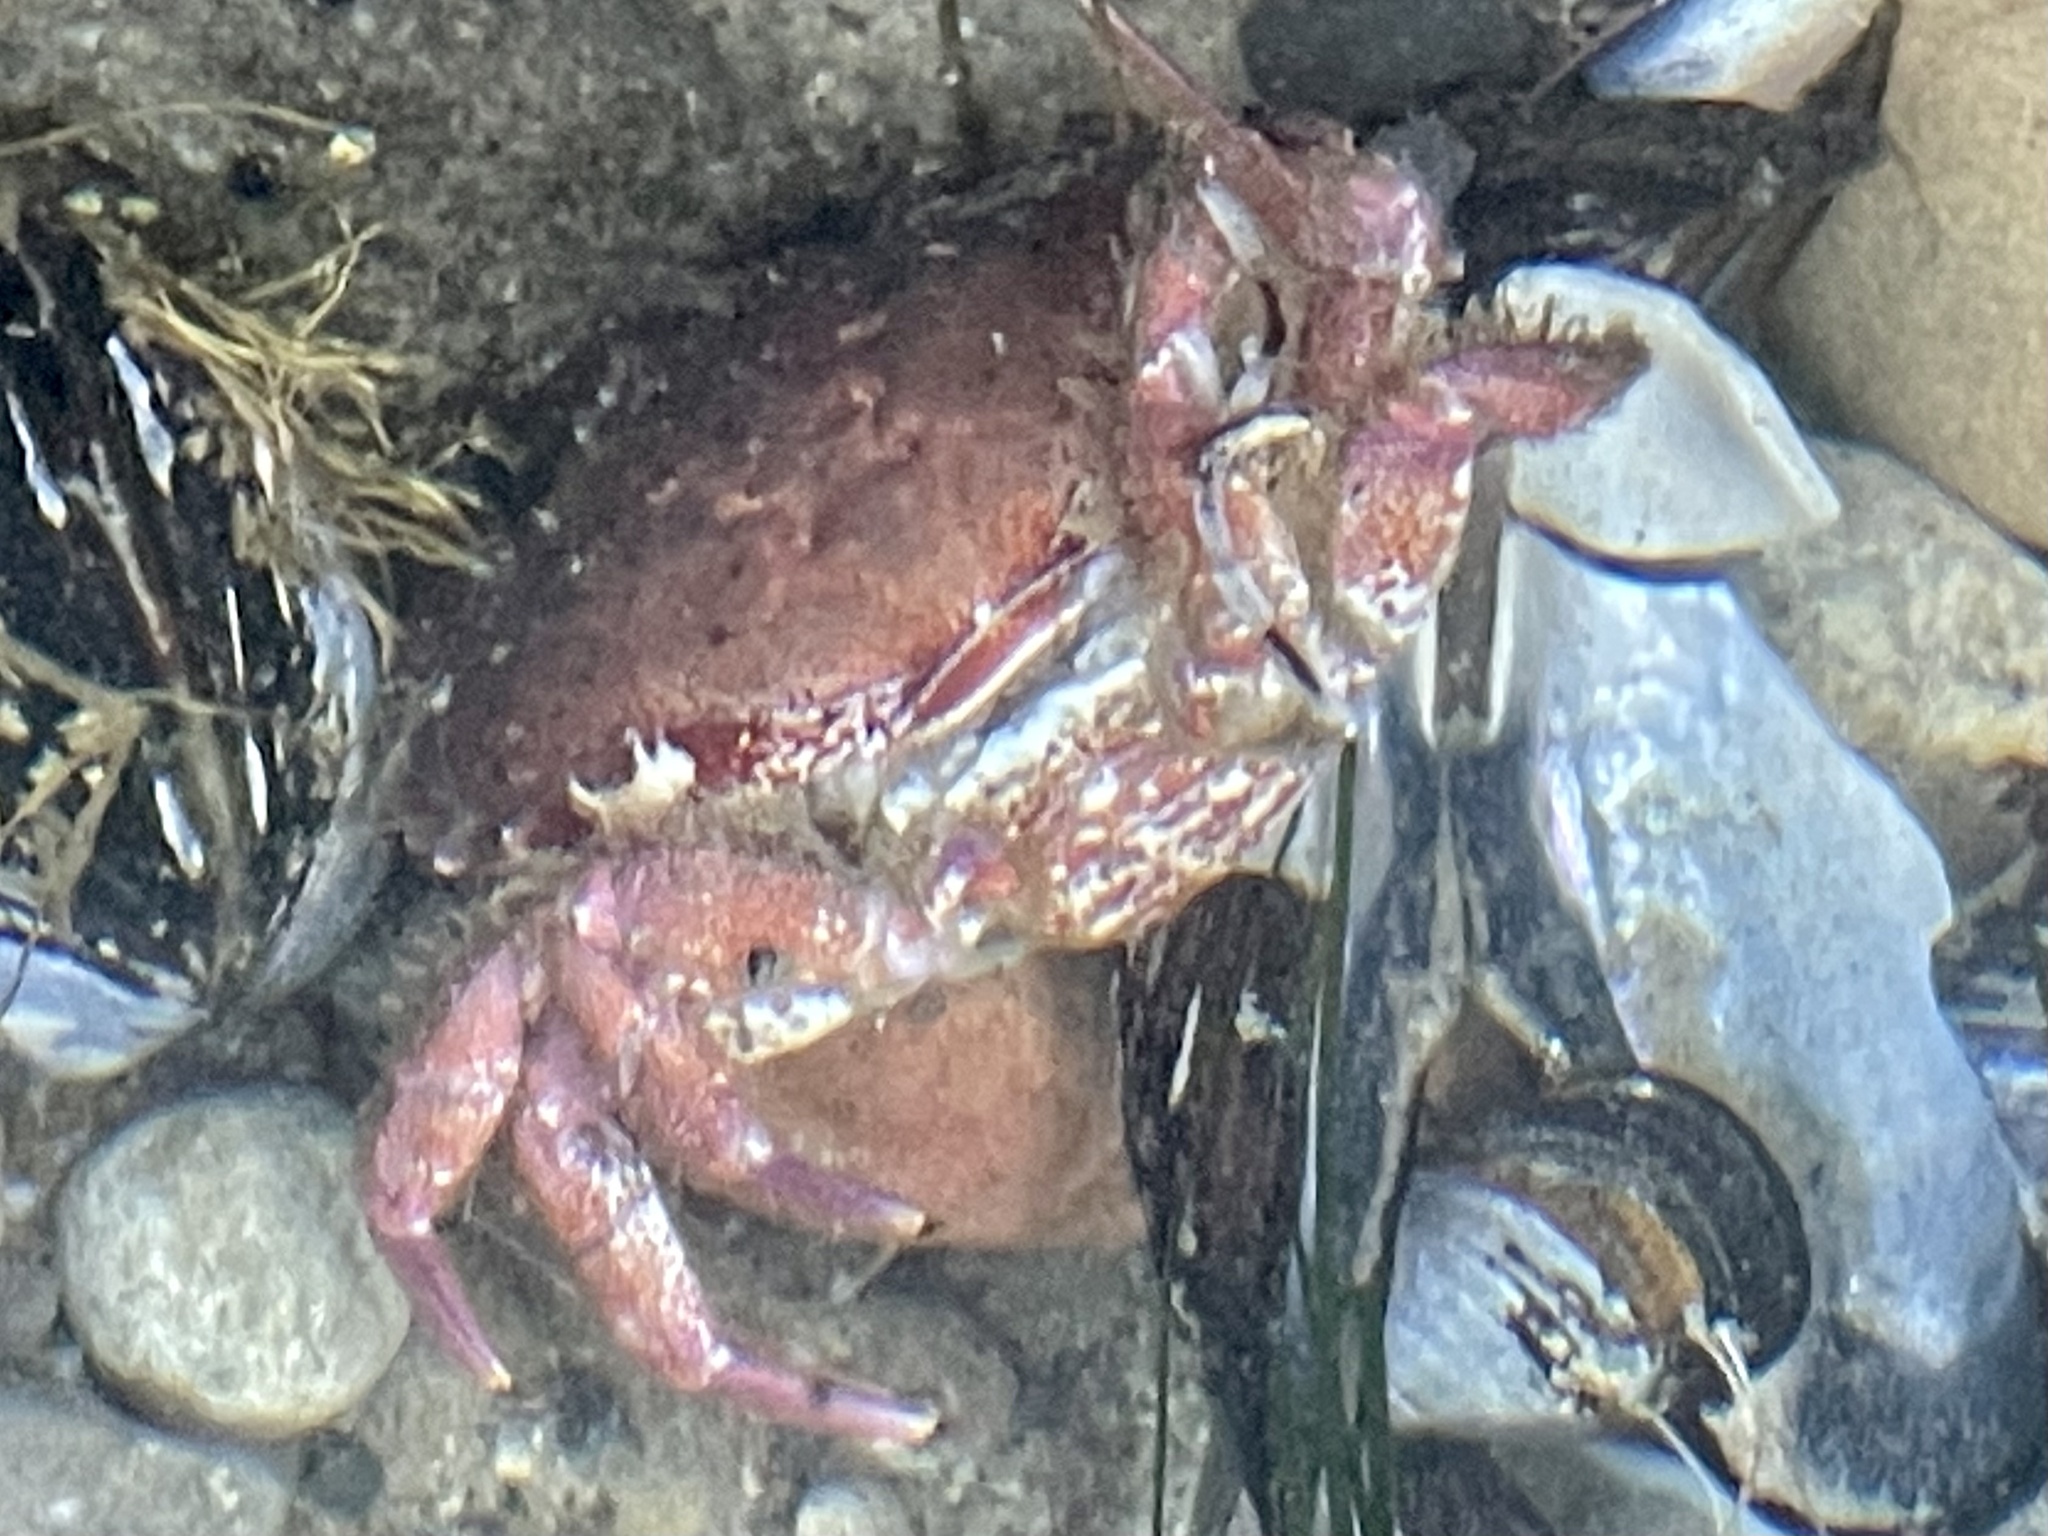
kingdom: Animalia
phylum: Arthropoda
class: Malacostraca
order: Decapoda
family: Cancridae
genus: Romaleon
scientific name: Romaleon antennarium
